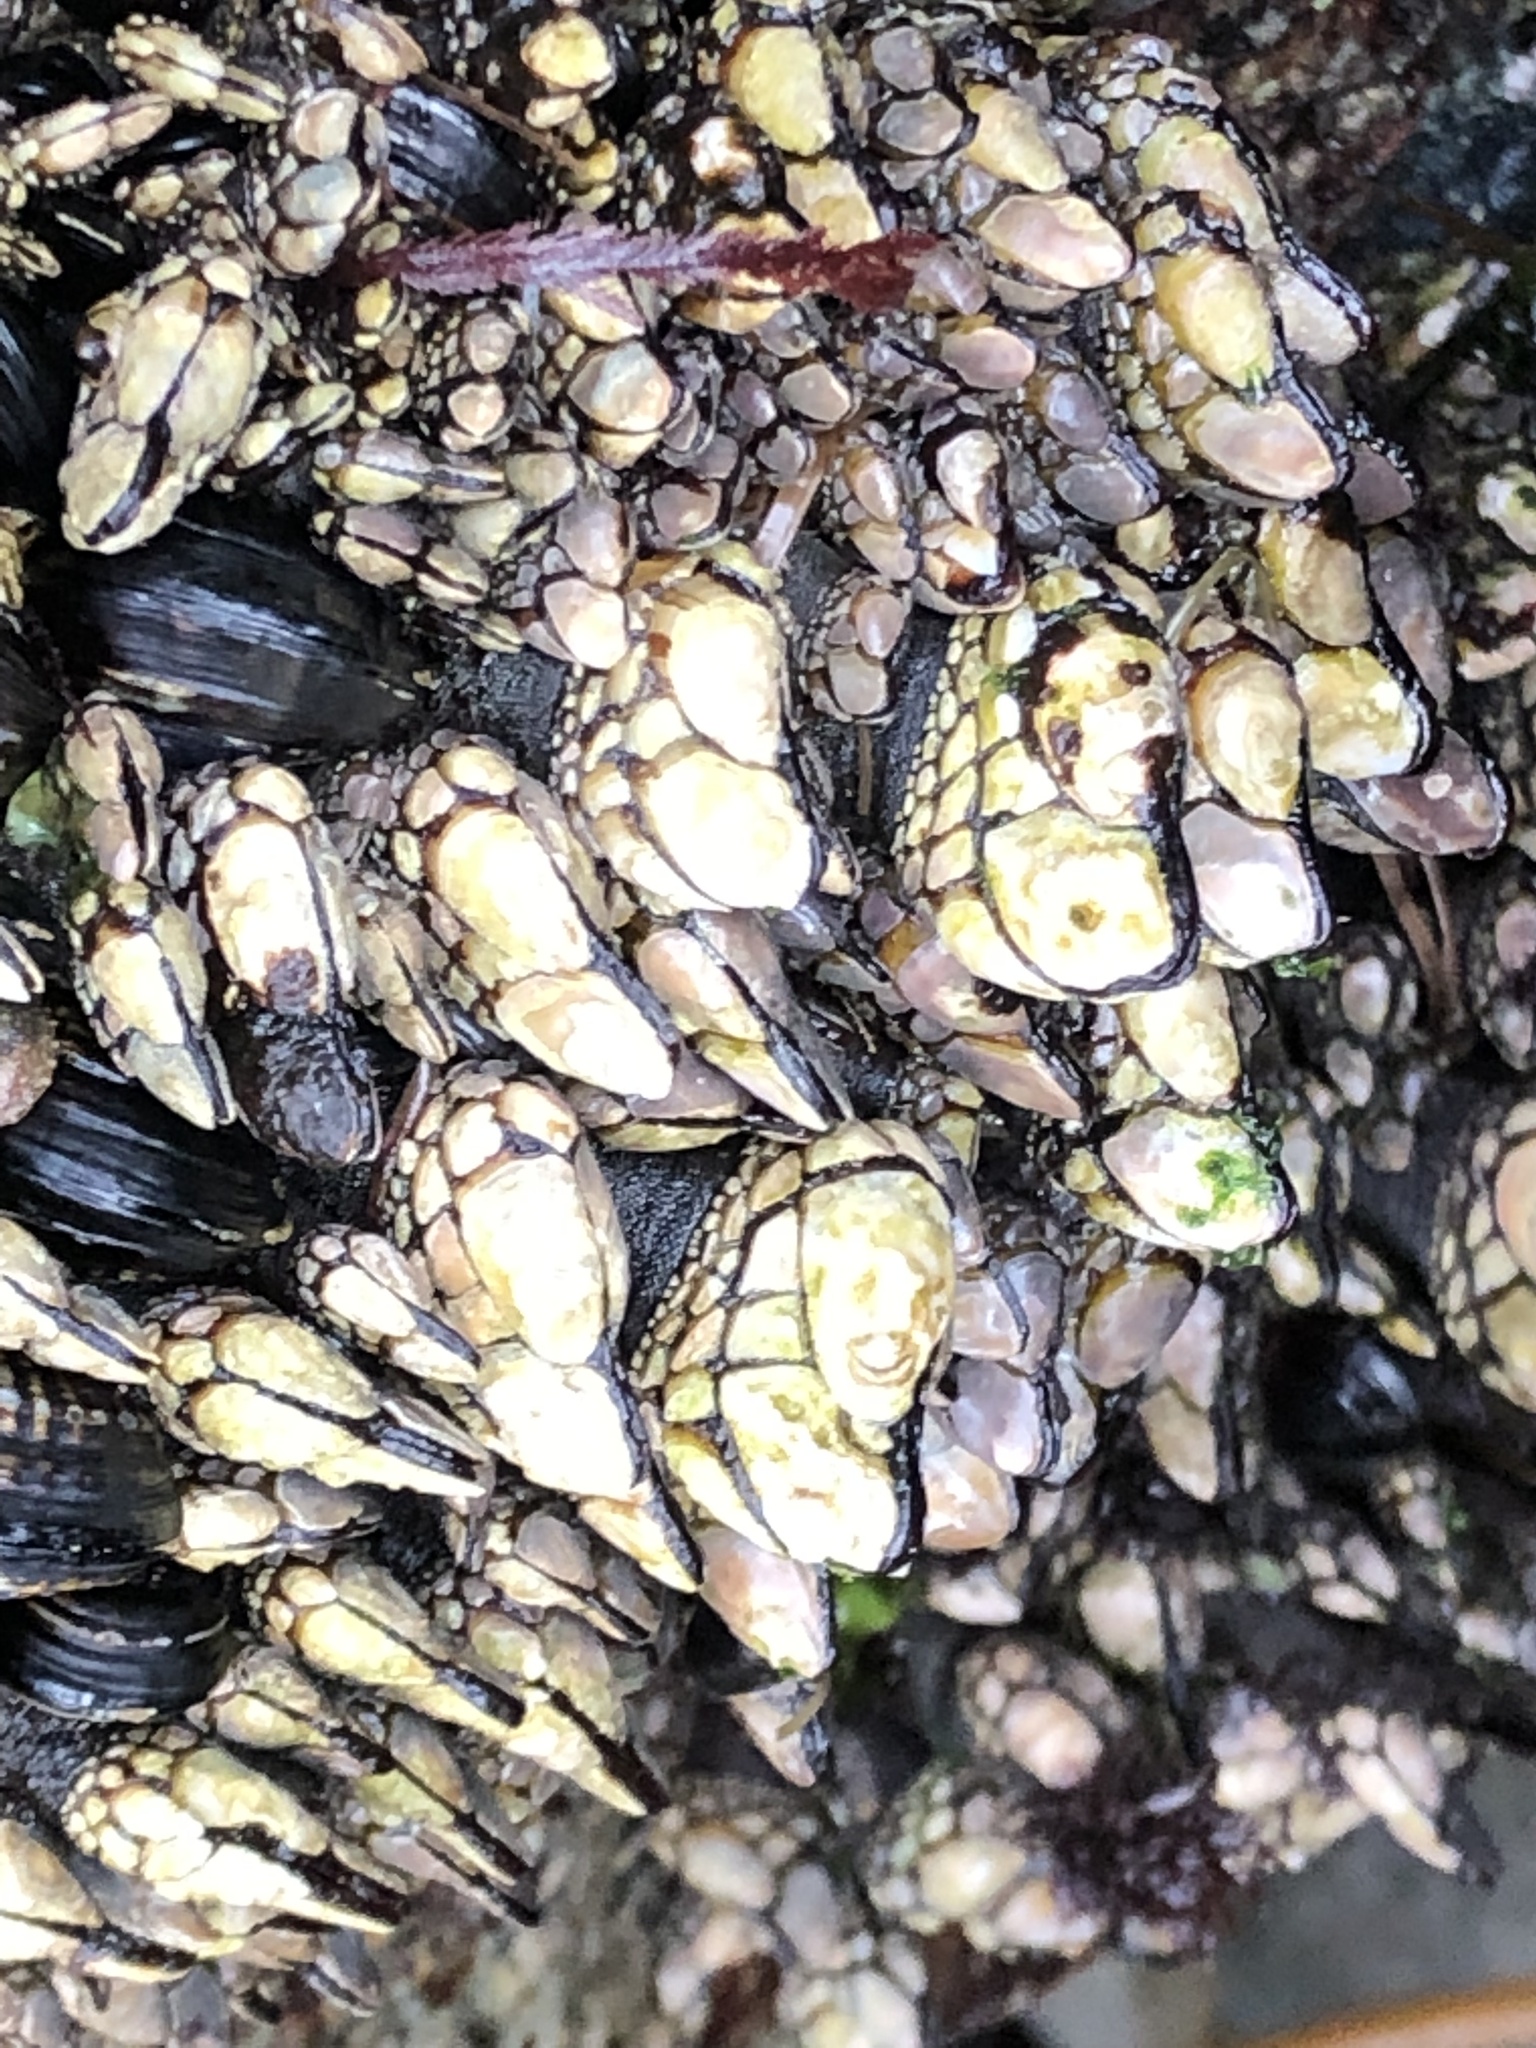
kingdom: Animalia
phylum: Arthropoda
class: Maxillopoda
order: Pedunculata
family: Pollicipedidae
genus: Pollicipes
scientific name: Pollicipes polymerus
